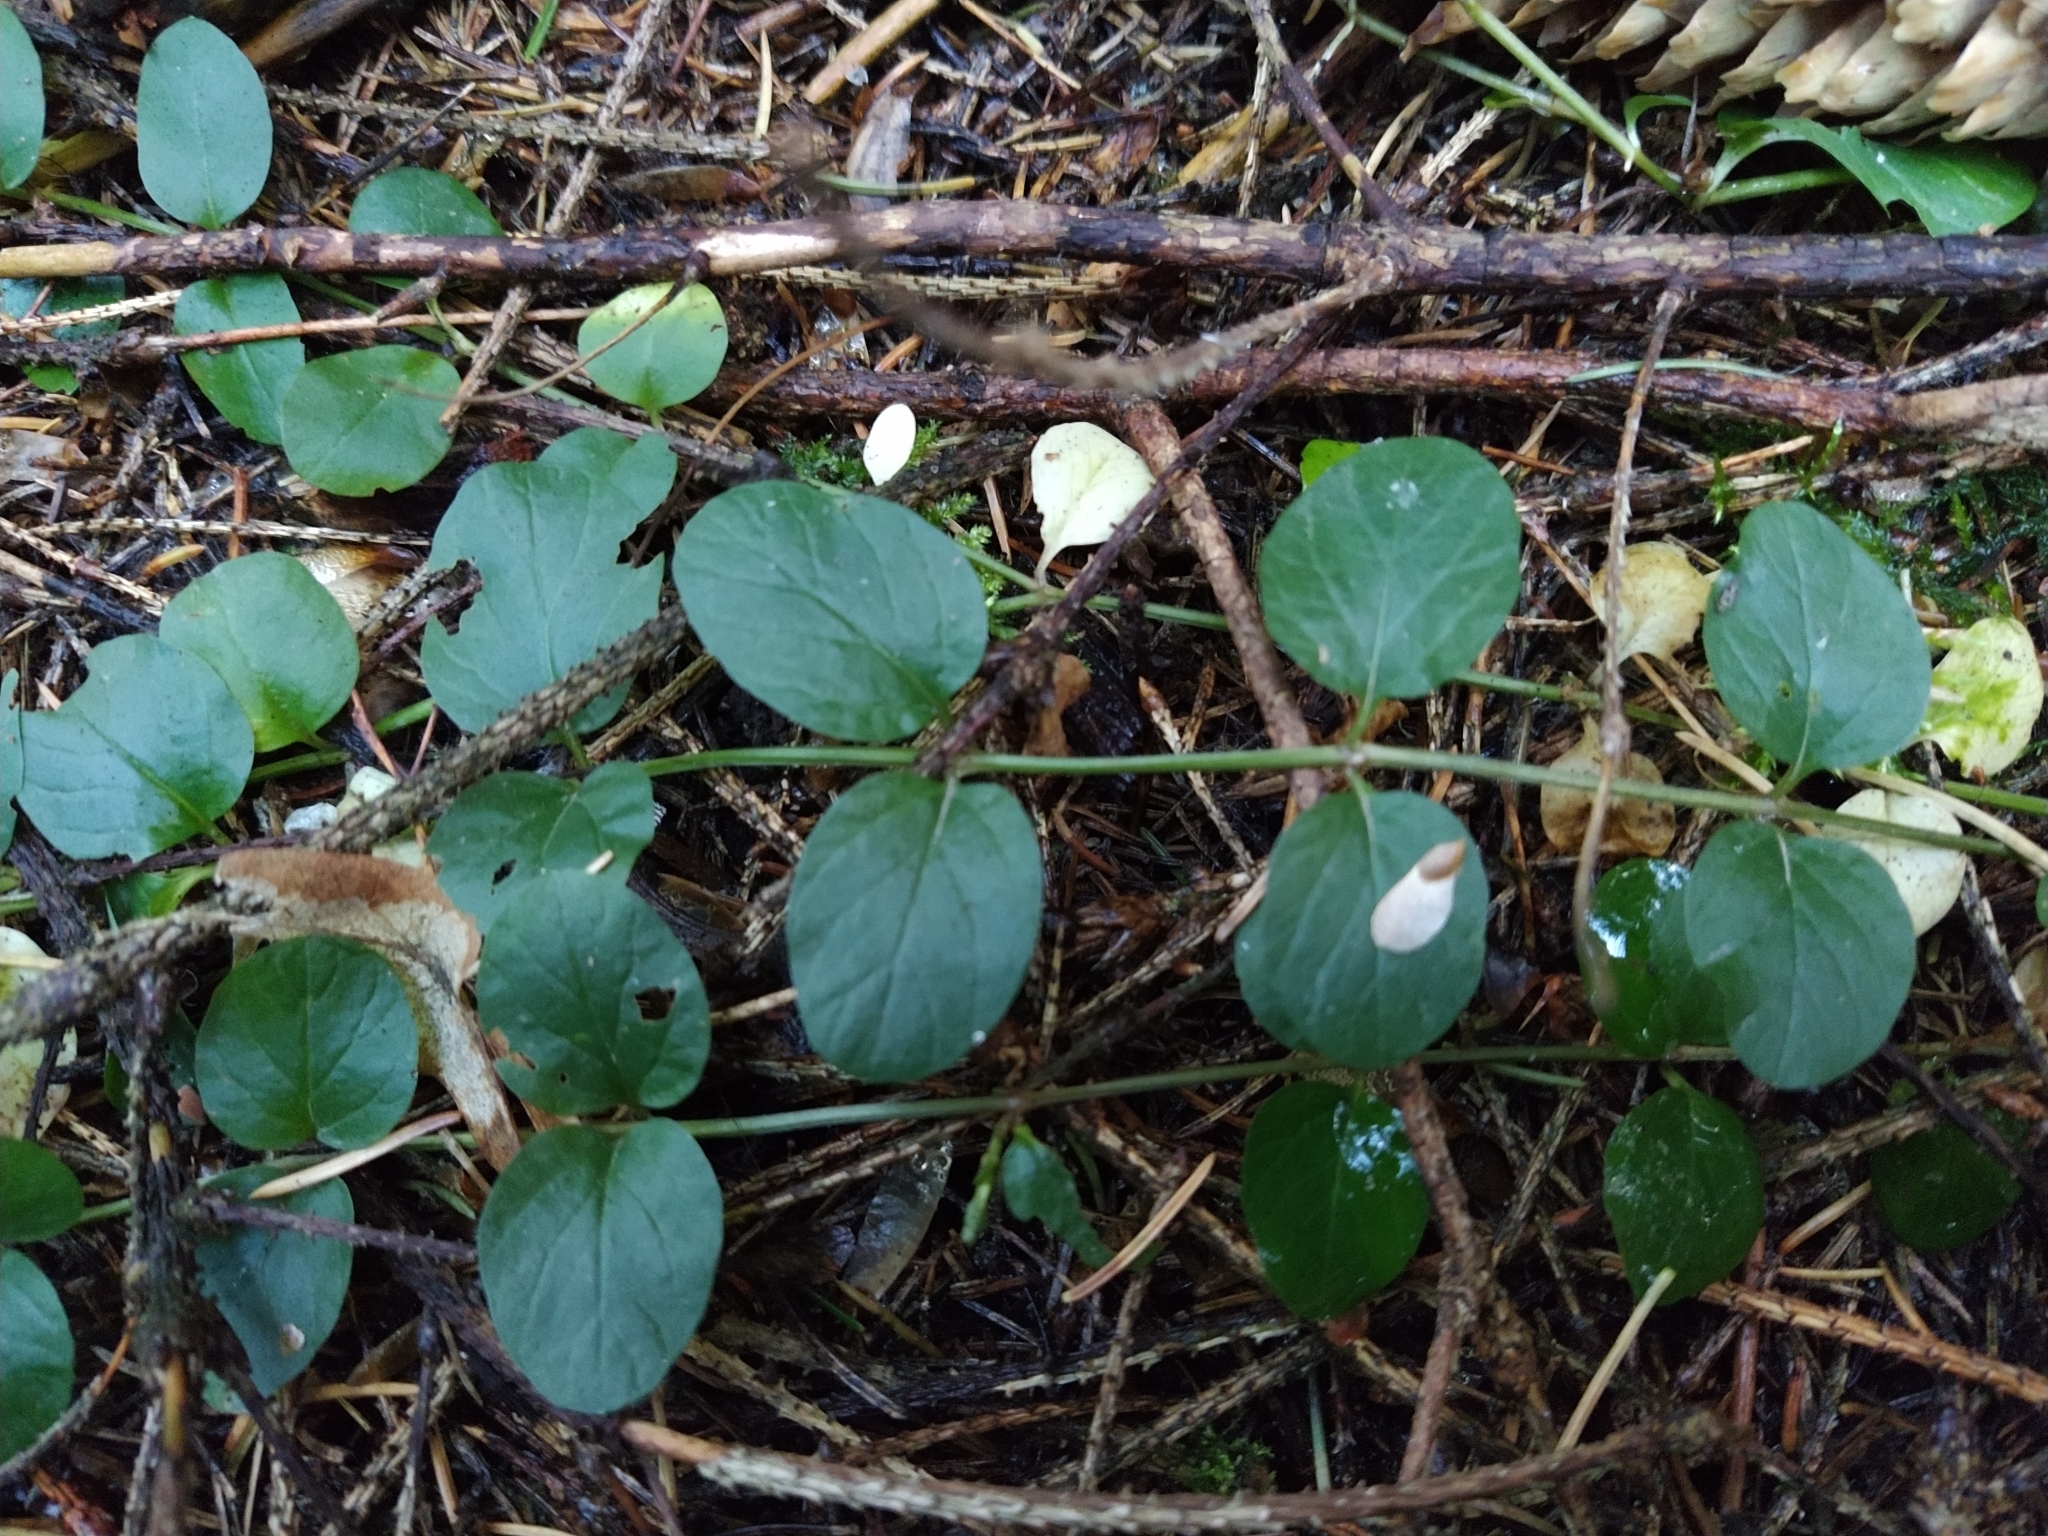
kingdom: Plantae
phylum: Tracheophyta
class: Magnoliopsida
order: Ericales
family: Primulaceae
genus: Lysimachia
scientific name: Lysimachia nummularia
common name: Moneywort
